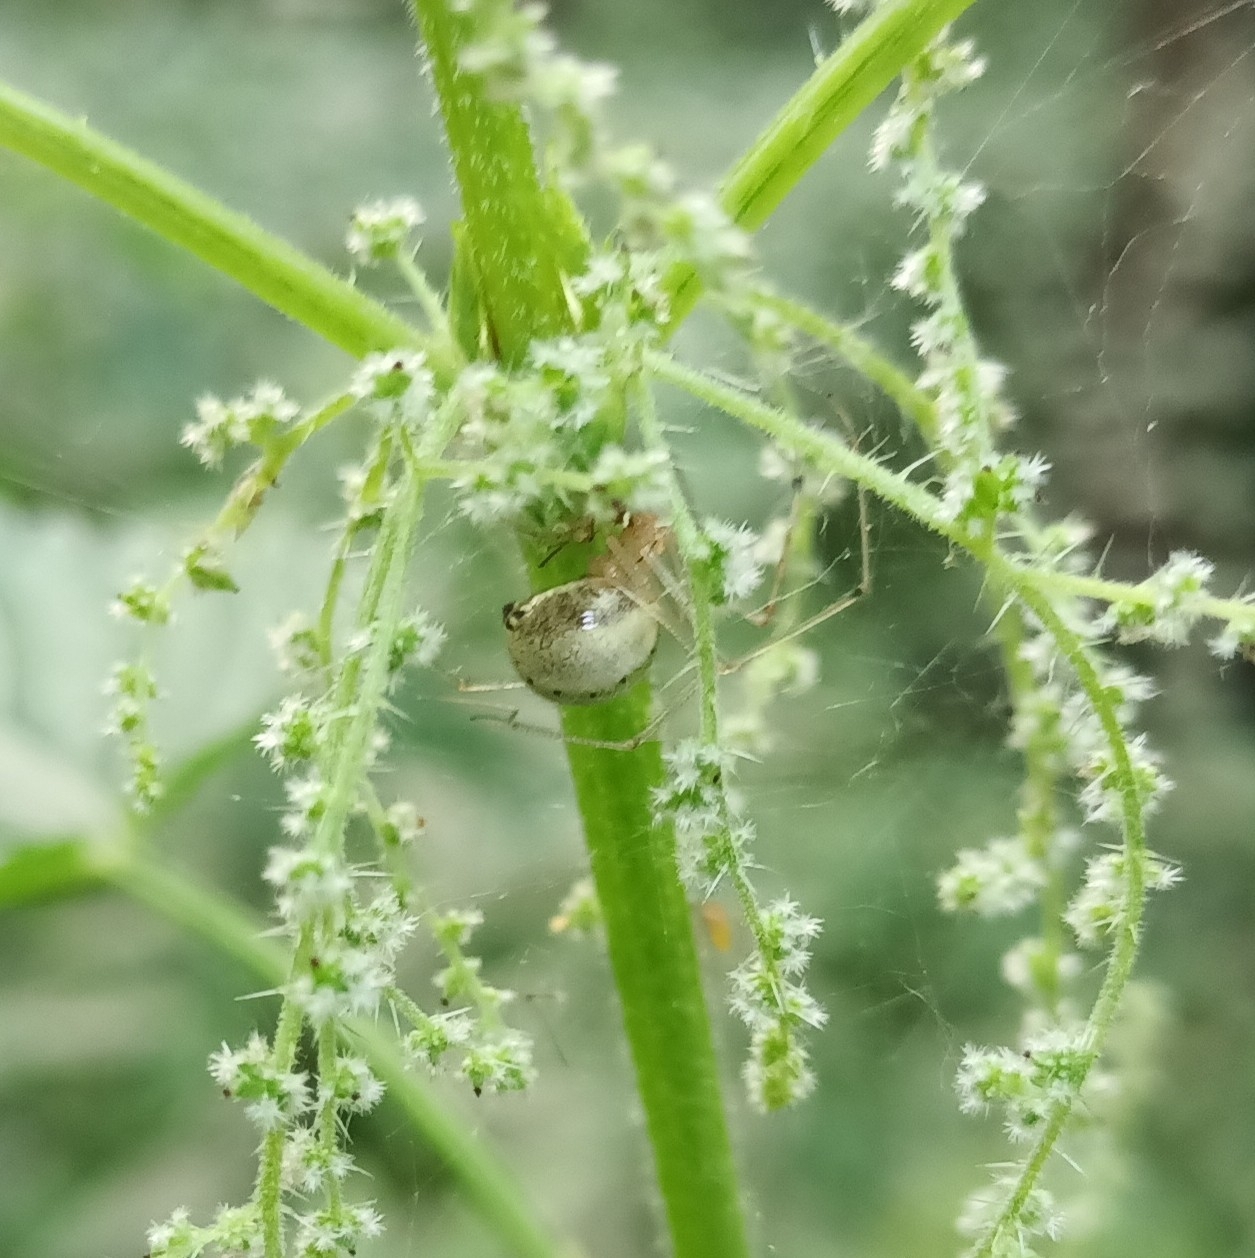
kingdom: Animalia
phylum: Arthropoda
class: Arachnida
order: Araneae
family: Theridiidae
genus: Enoplognatha
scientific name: Enoplognatha ovata
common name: Common candy-striped spider
